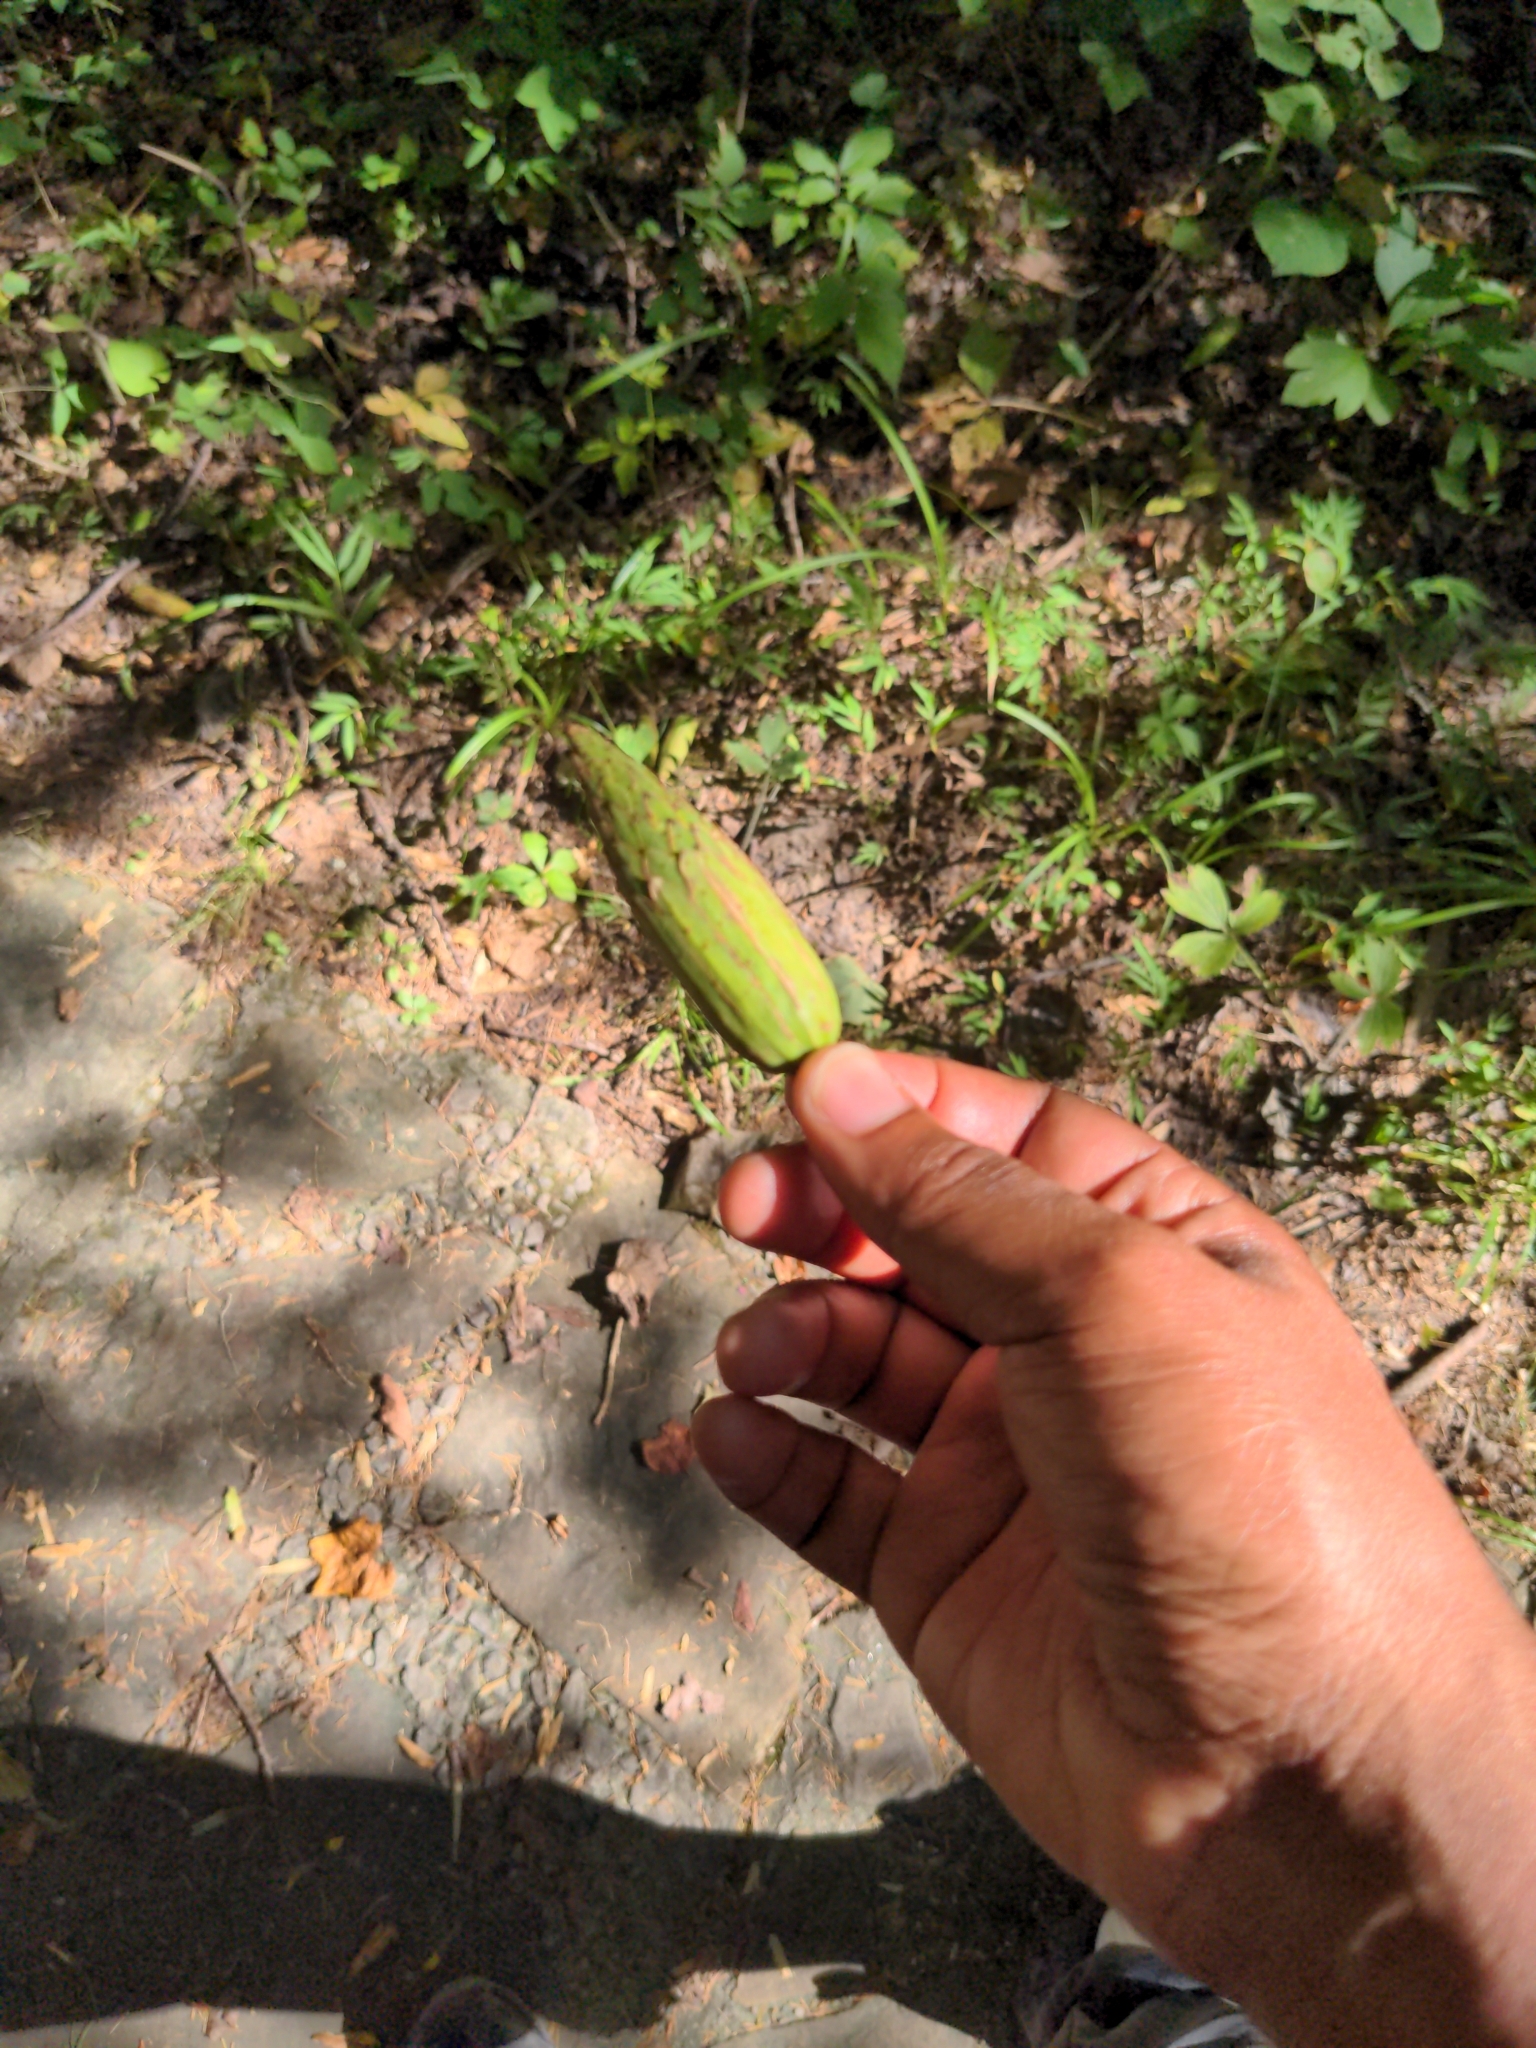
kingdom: Plantae
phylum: Tracheophyta
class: Magnoliopsida
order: Magnoliales
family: Magnoliaceae
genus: Liriodendron
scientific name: Liriodendron tulipifera
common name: Tulip tree
